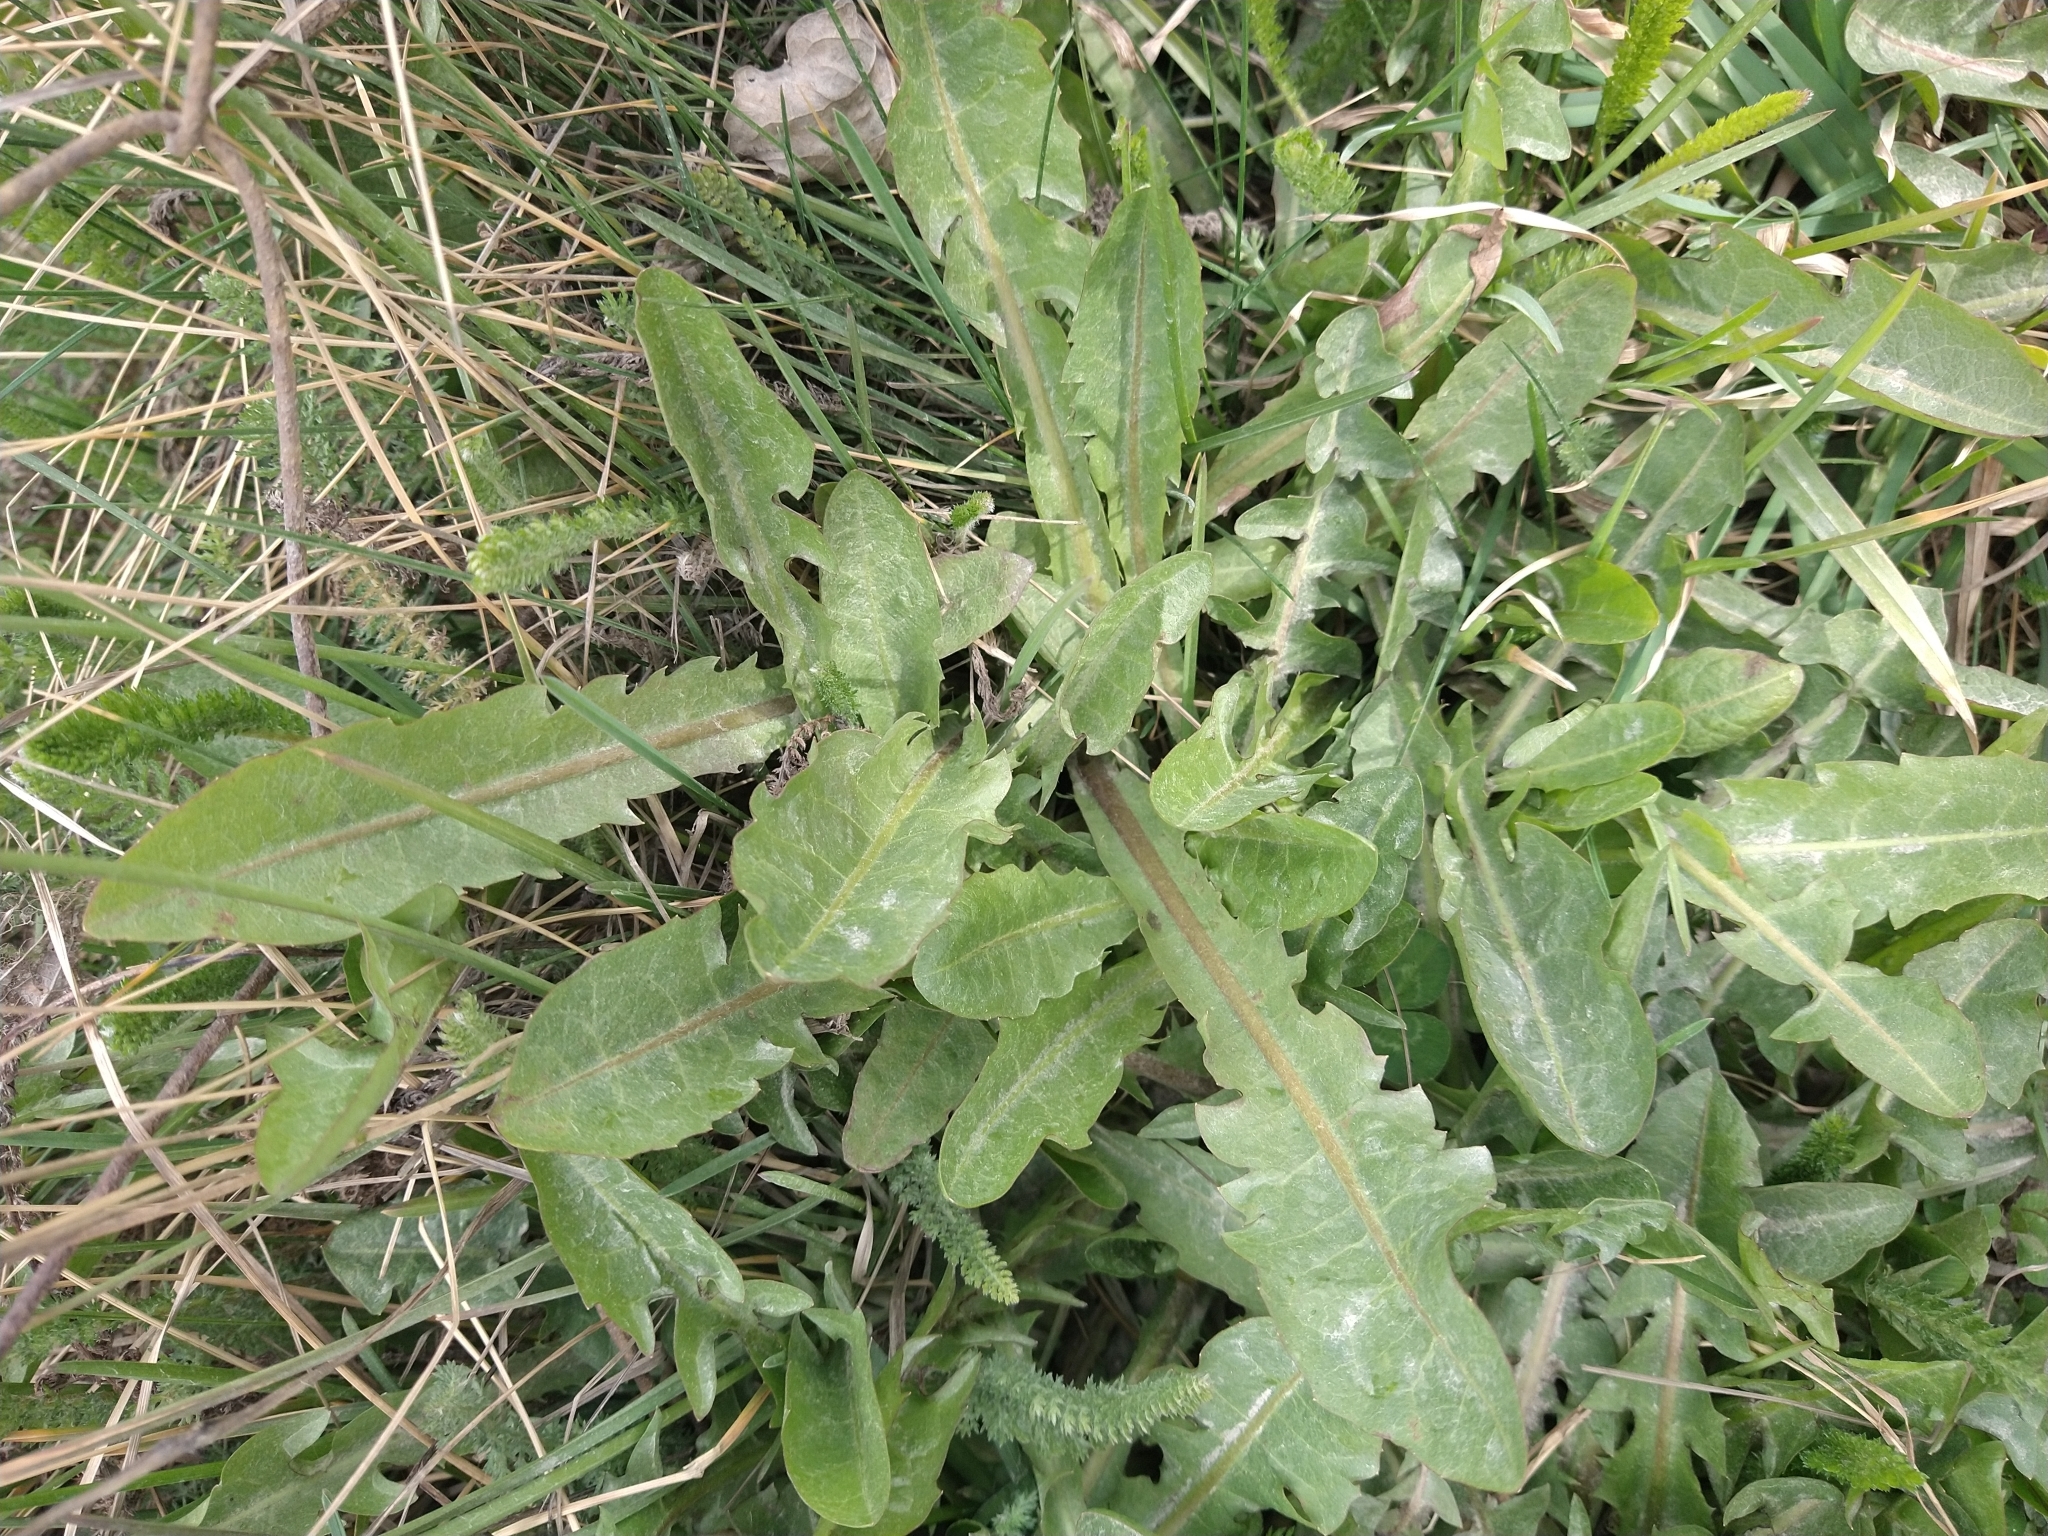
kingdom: Plantae
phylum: Tracheophyta
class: Magnoliopsida
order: Asterales
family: Asteraceae
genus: Taraxacum
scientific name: Taraxacum officinale
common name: Common dandelion
